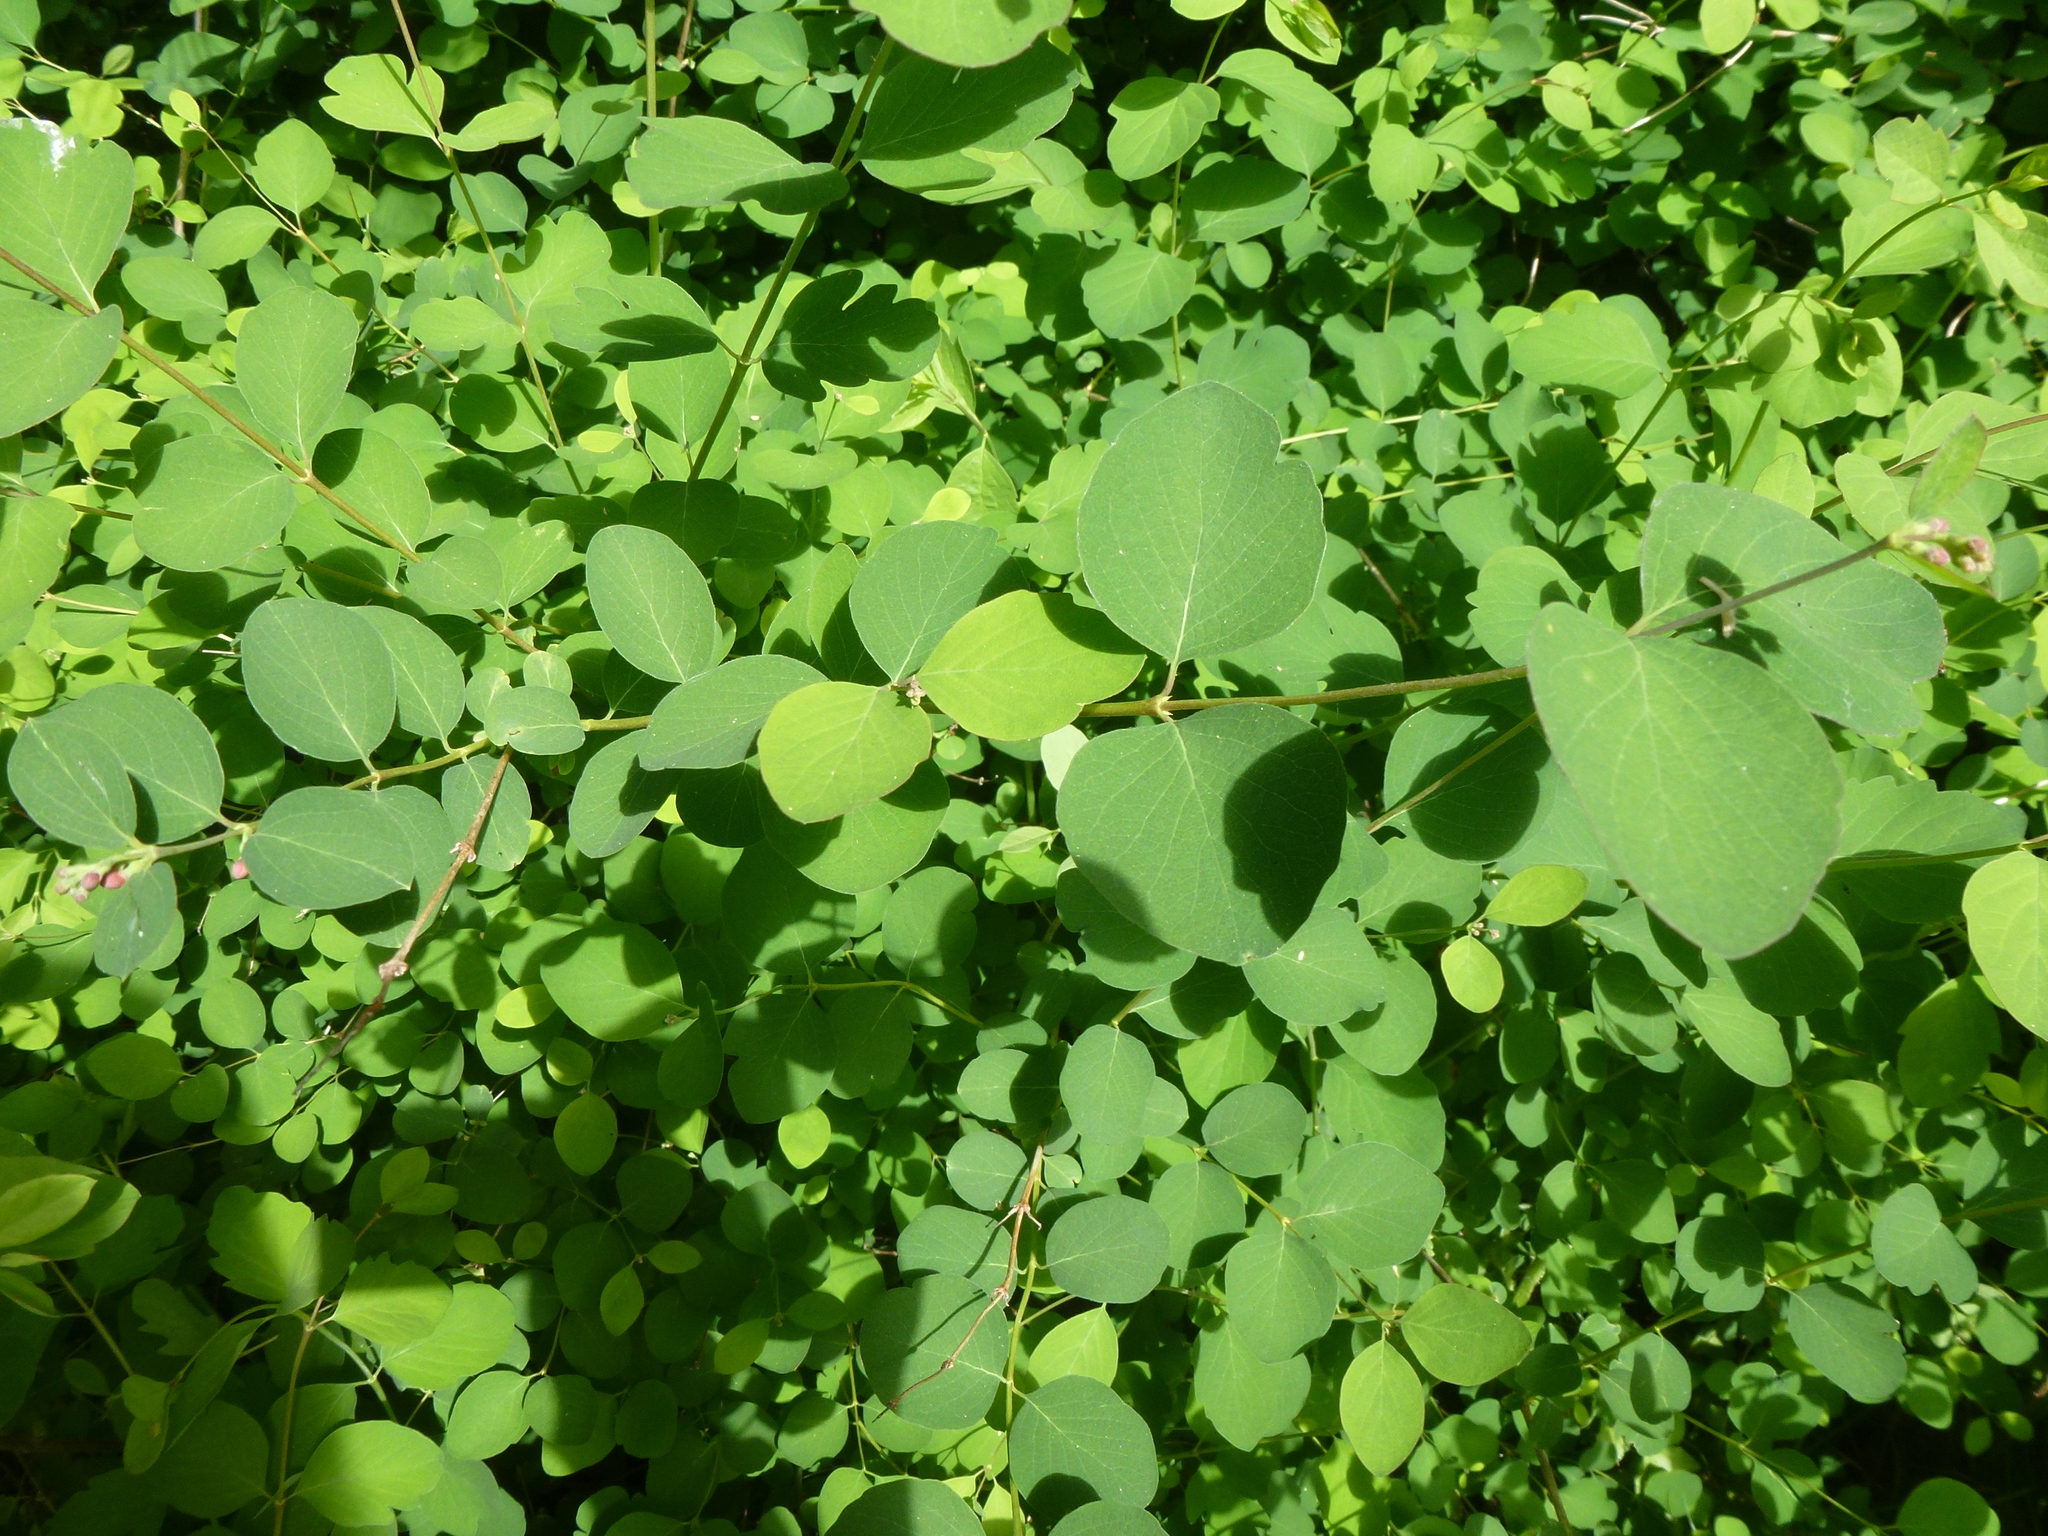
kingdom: Plantae
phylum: Tracheophyta
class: Magnoliopsida
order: Dipsacales
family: Caprifoliaceae
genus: Symphoricarpos
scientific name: Symphoricarpos albus
